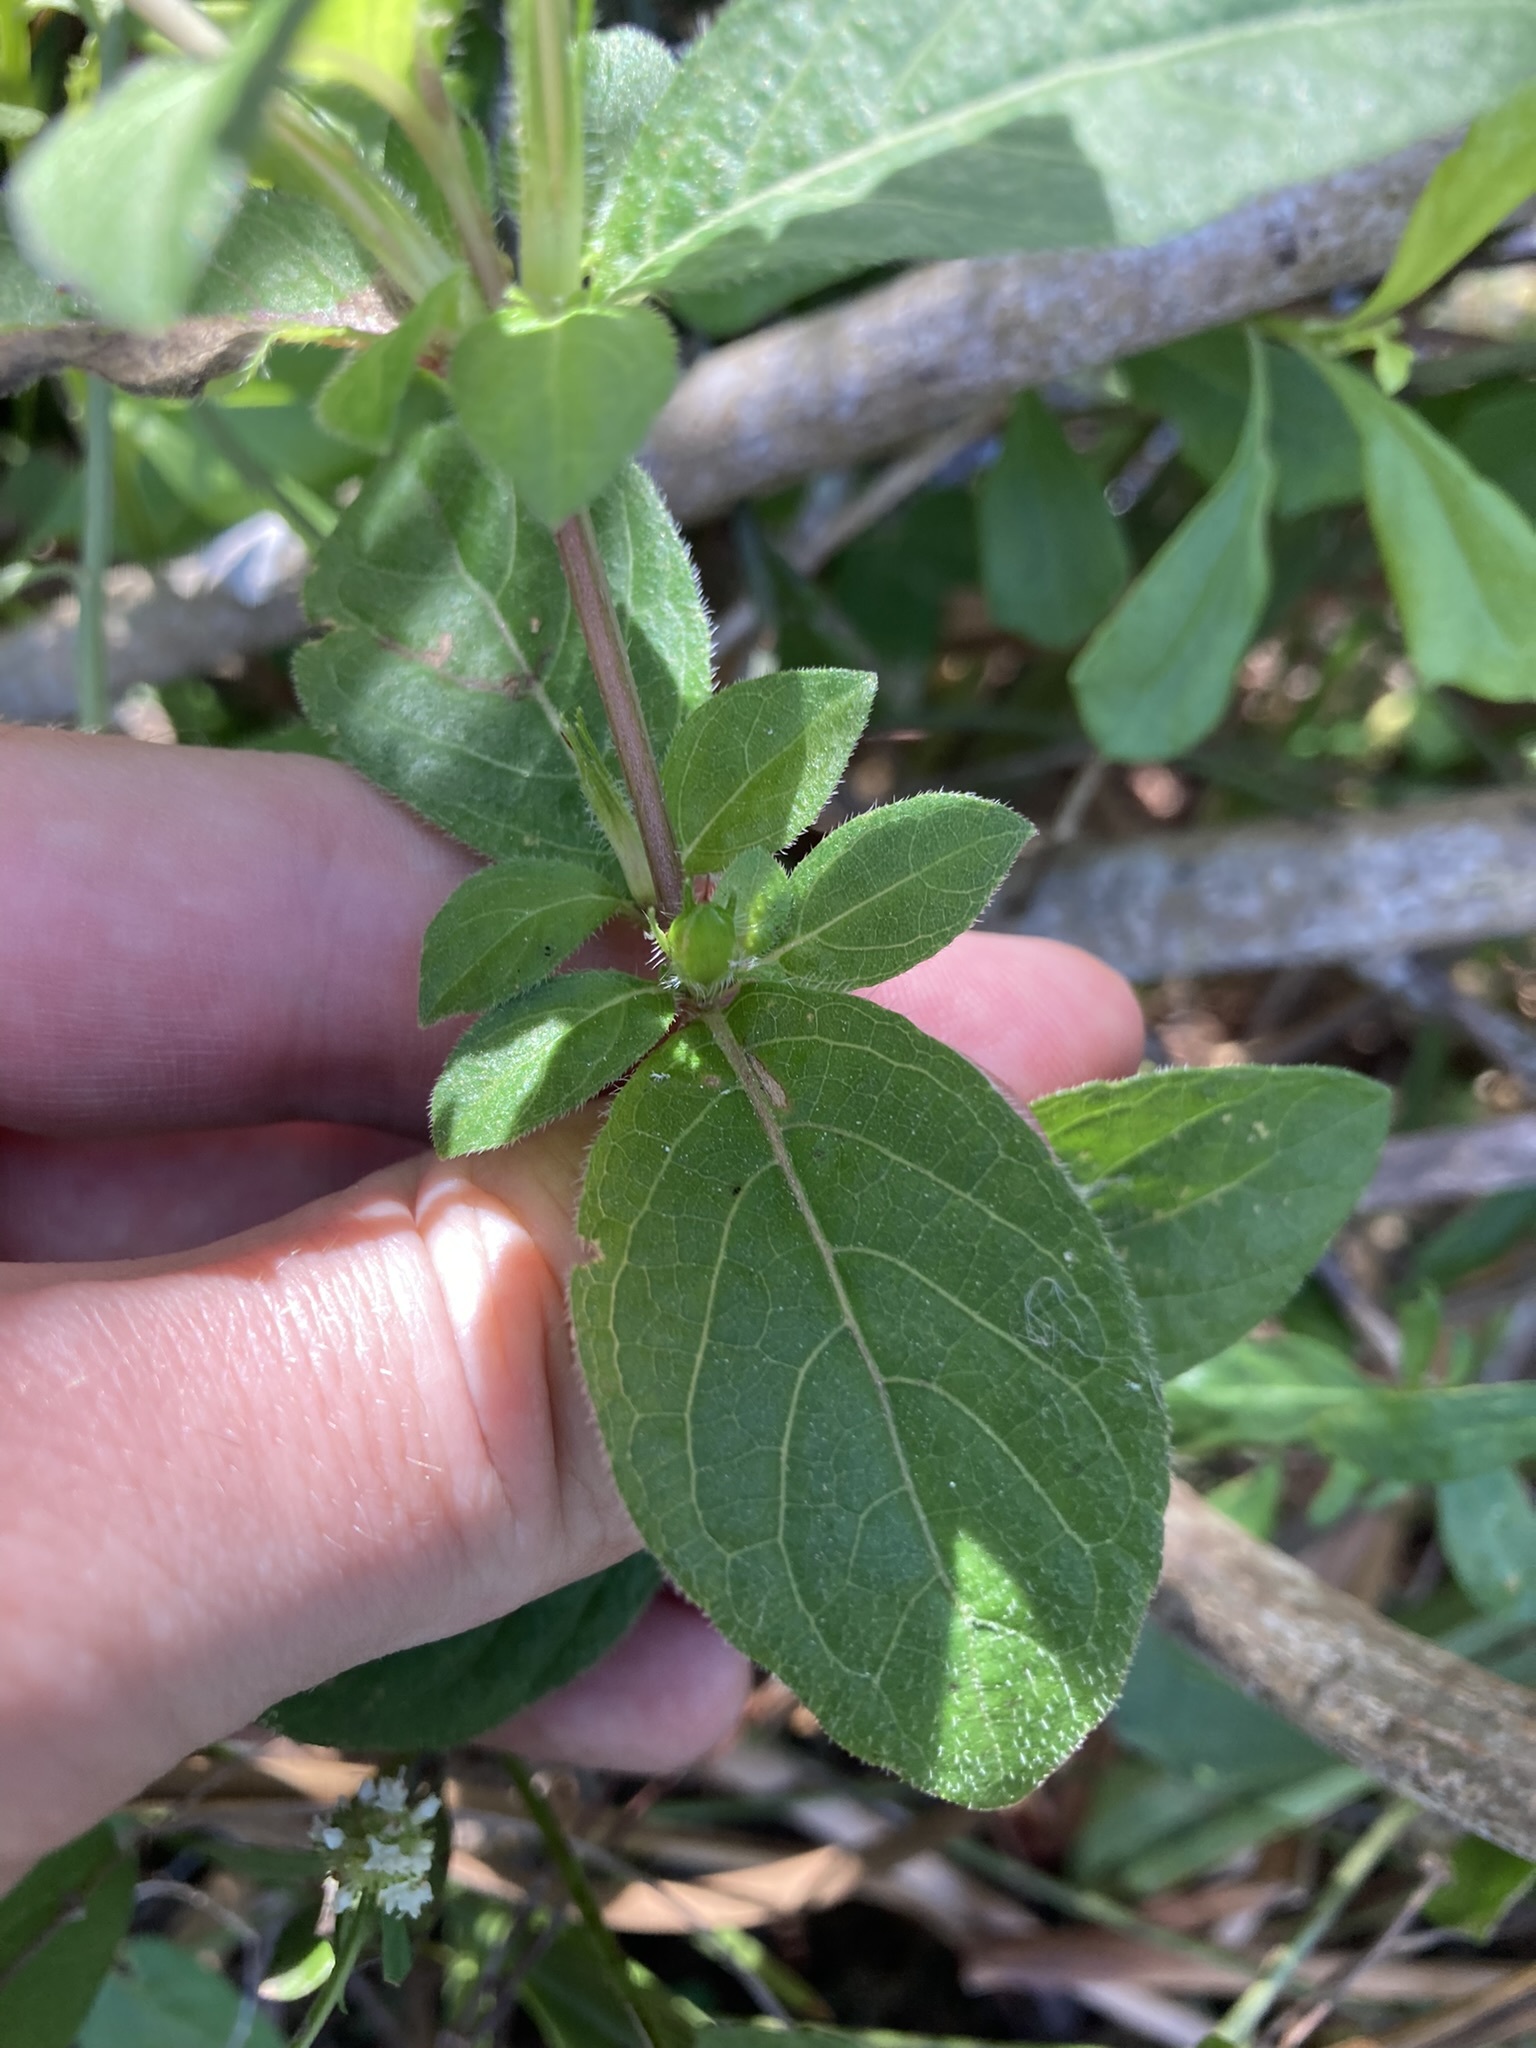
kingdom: Plantae
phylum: Tracheophyta
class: Magnoliopsida
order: Lamiales
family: Acanthaceae
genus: Ruellia
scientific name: Ruellia caroliniensis
